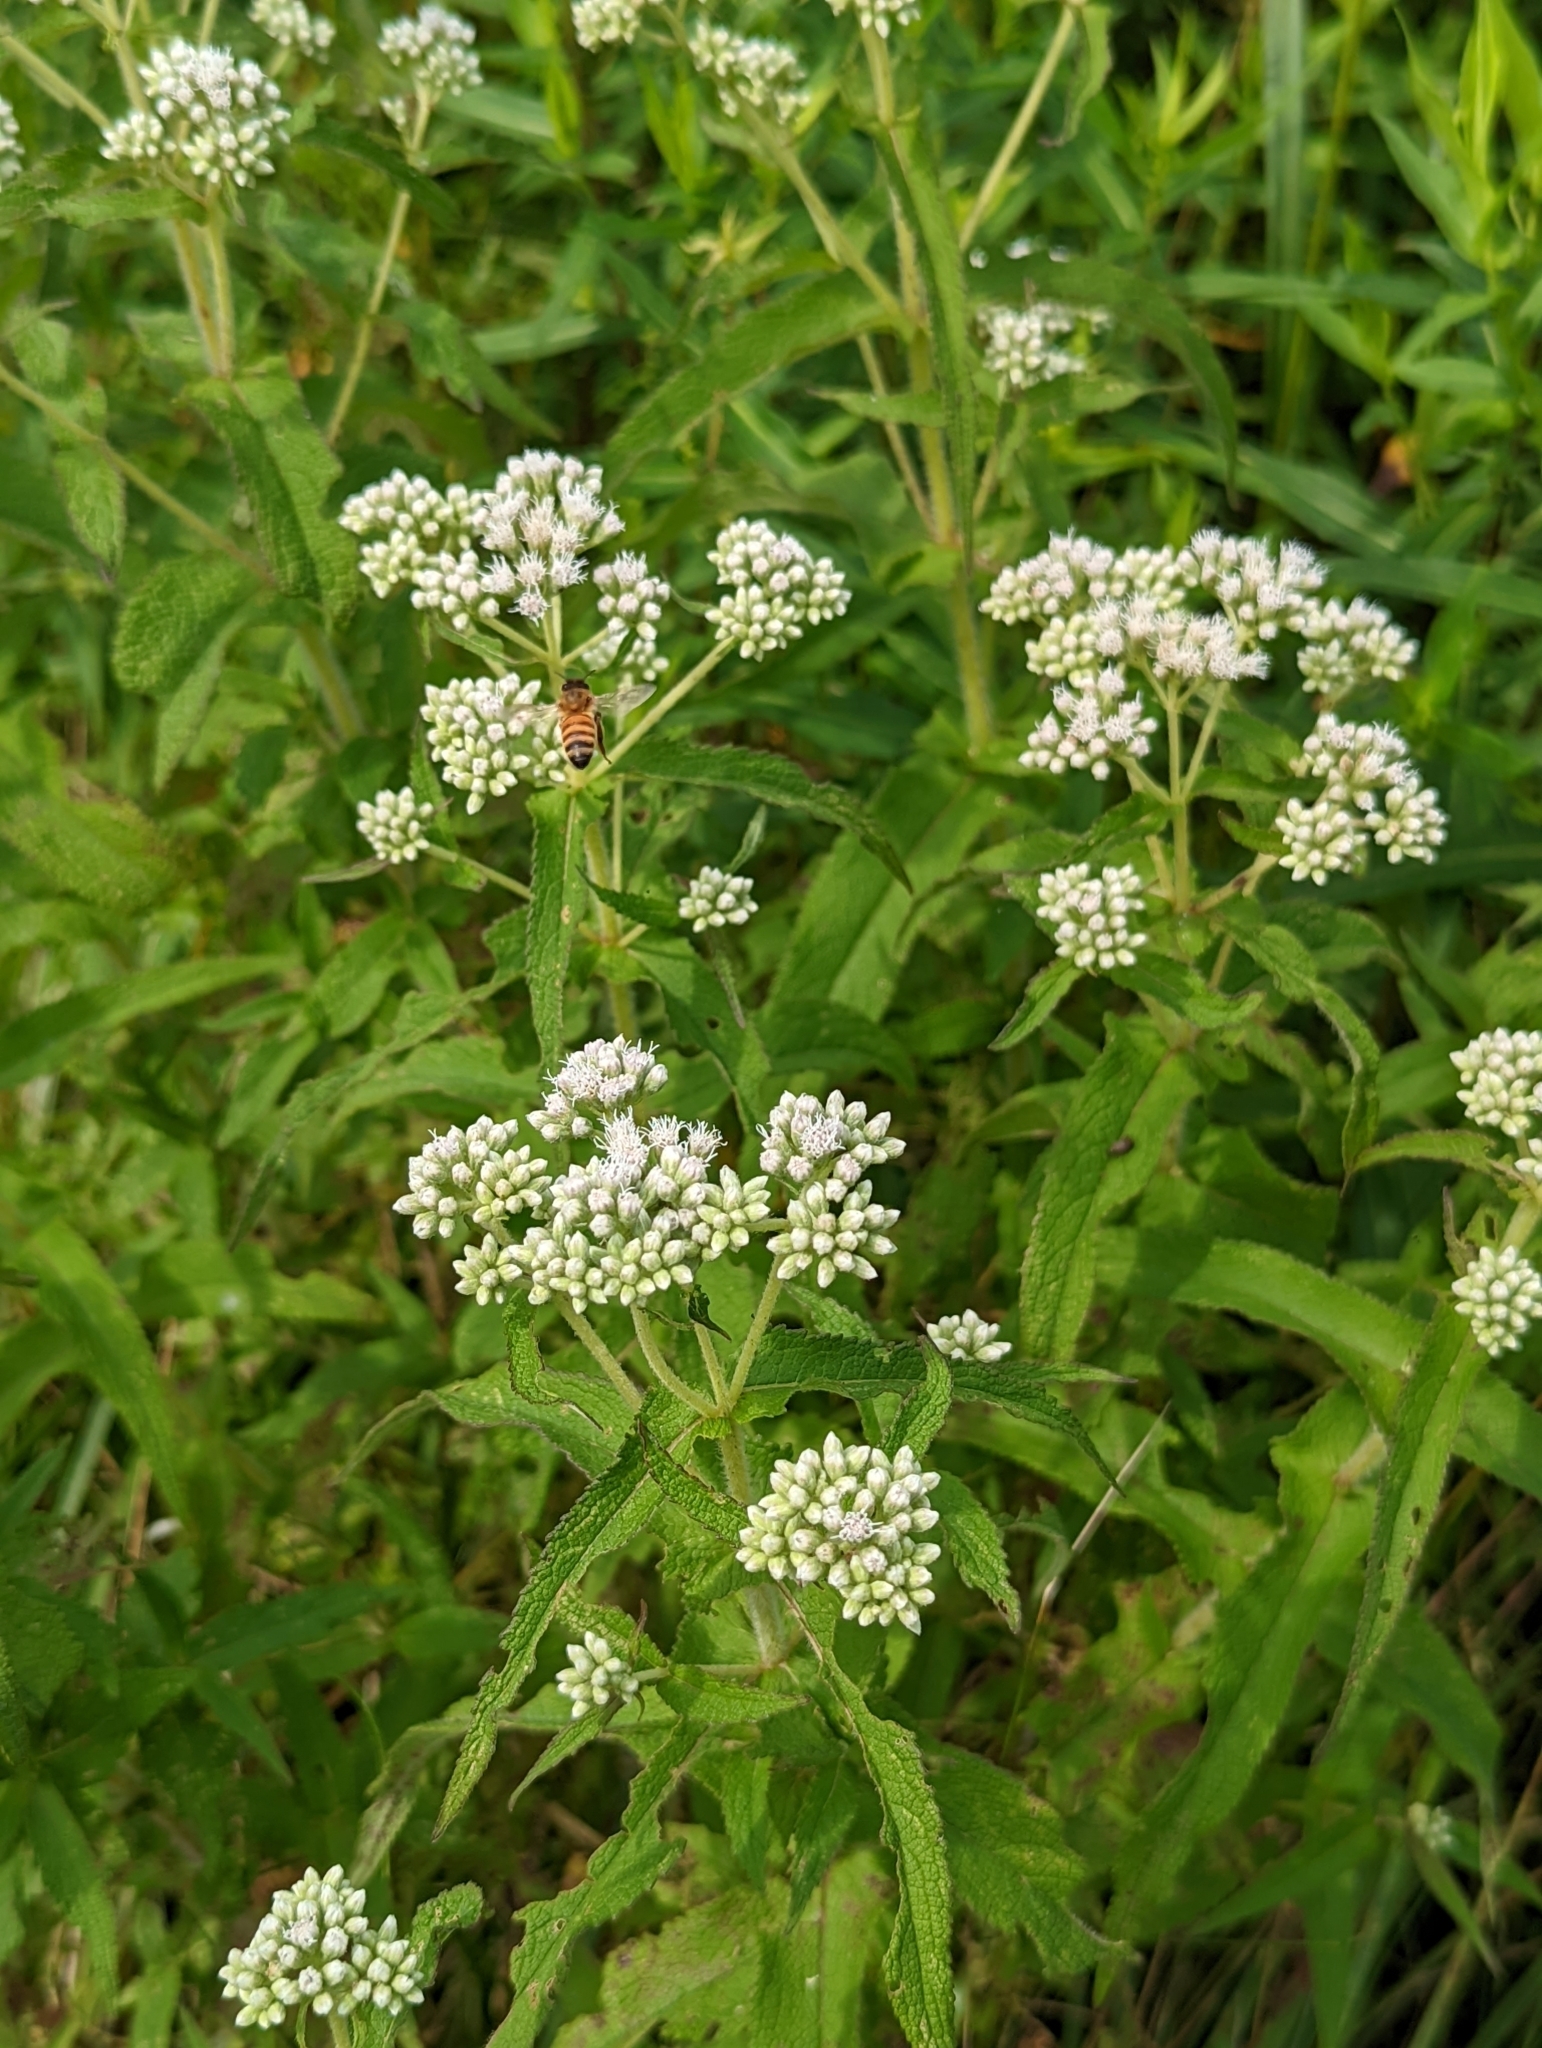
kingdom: Plantae
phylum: Tracheophyta
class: Magnoliopsida
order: Asterales
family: Asteraceae
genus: Eupatorium
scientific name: Eupatorium perfoliatum
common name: Boneset
